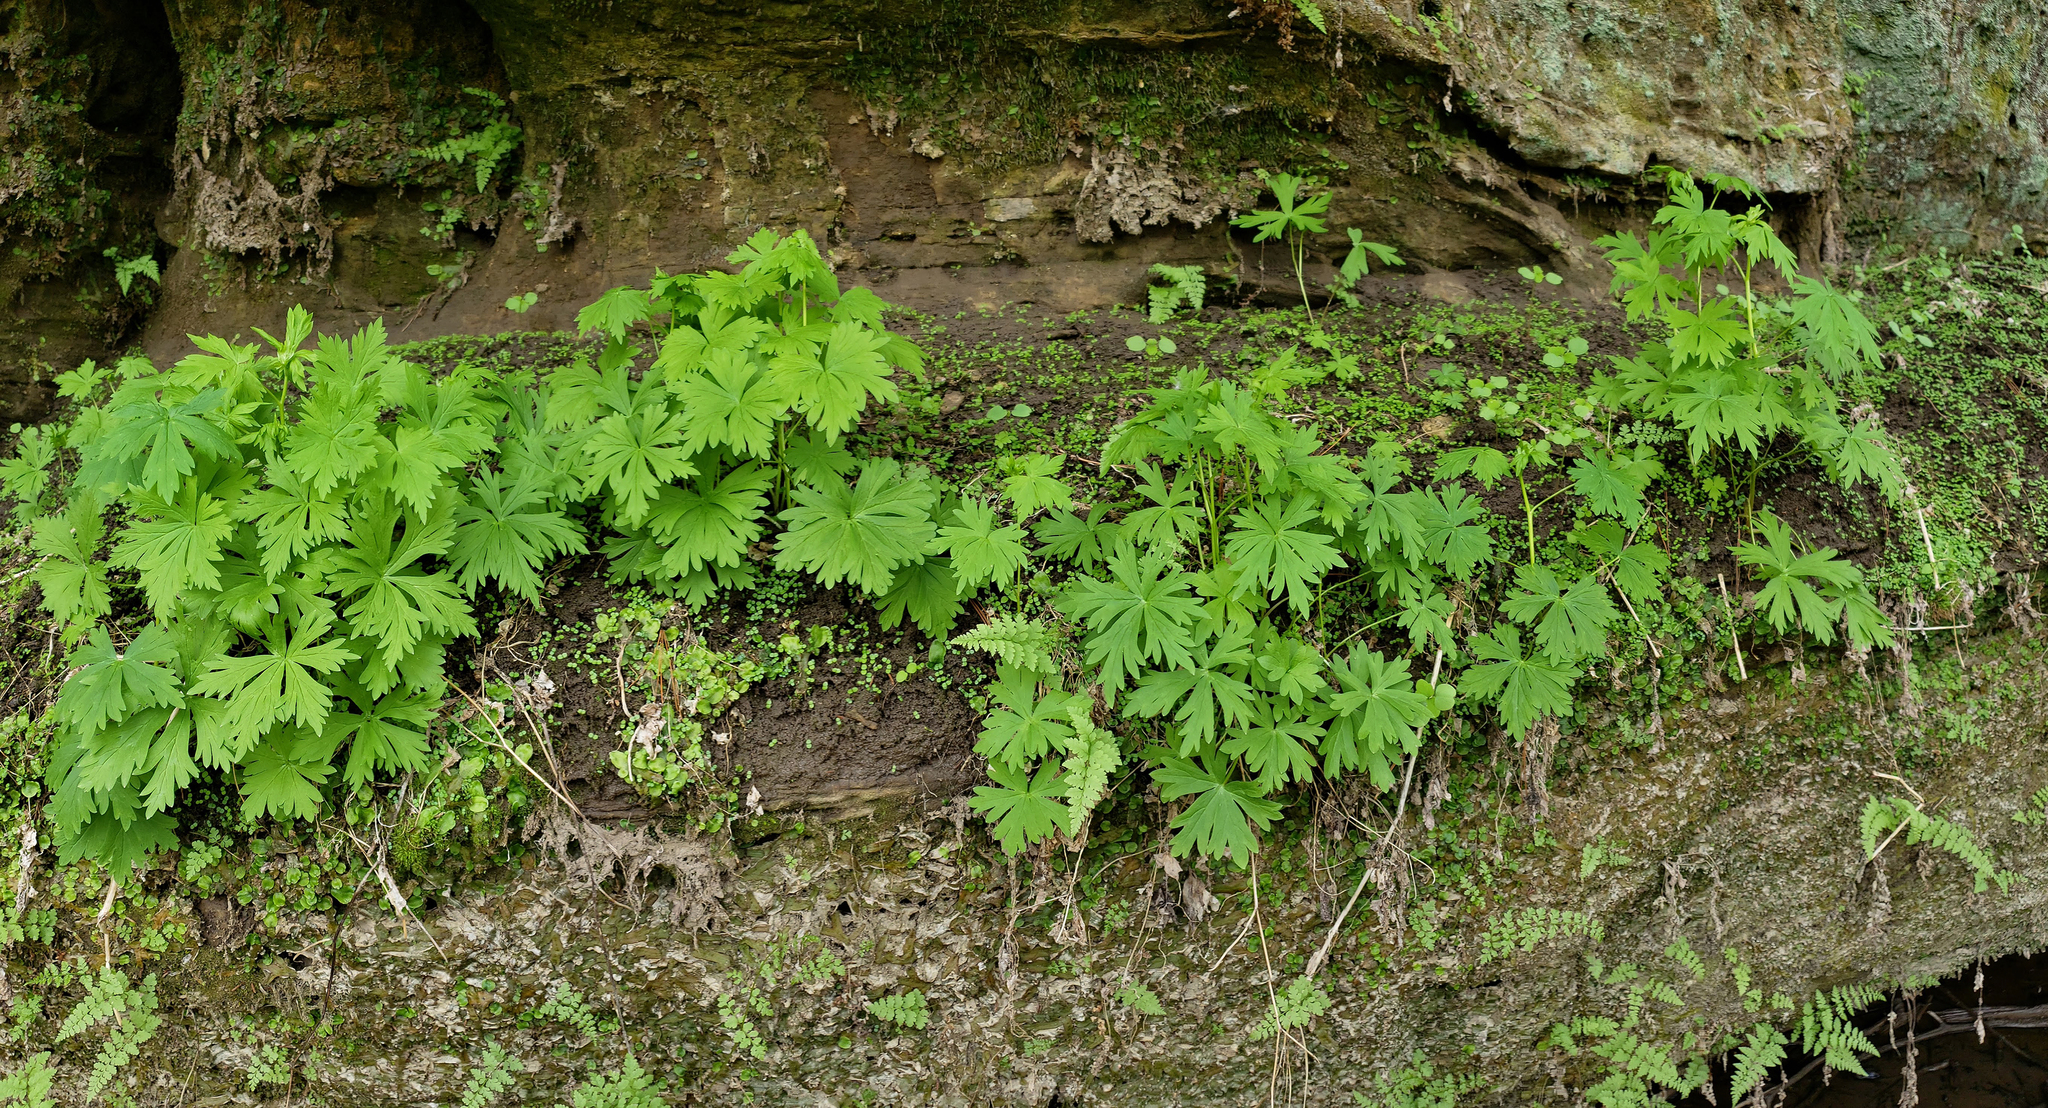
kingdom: Plantae
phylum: Tracheophyta
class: Magnoliopsida
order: Ranunculales
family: Ranunculaceae
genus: Aconitum
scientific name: Aconitum noveboracense
